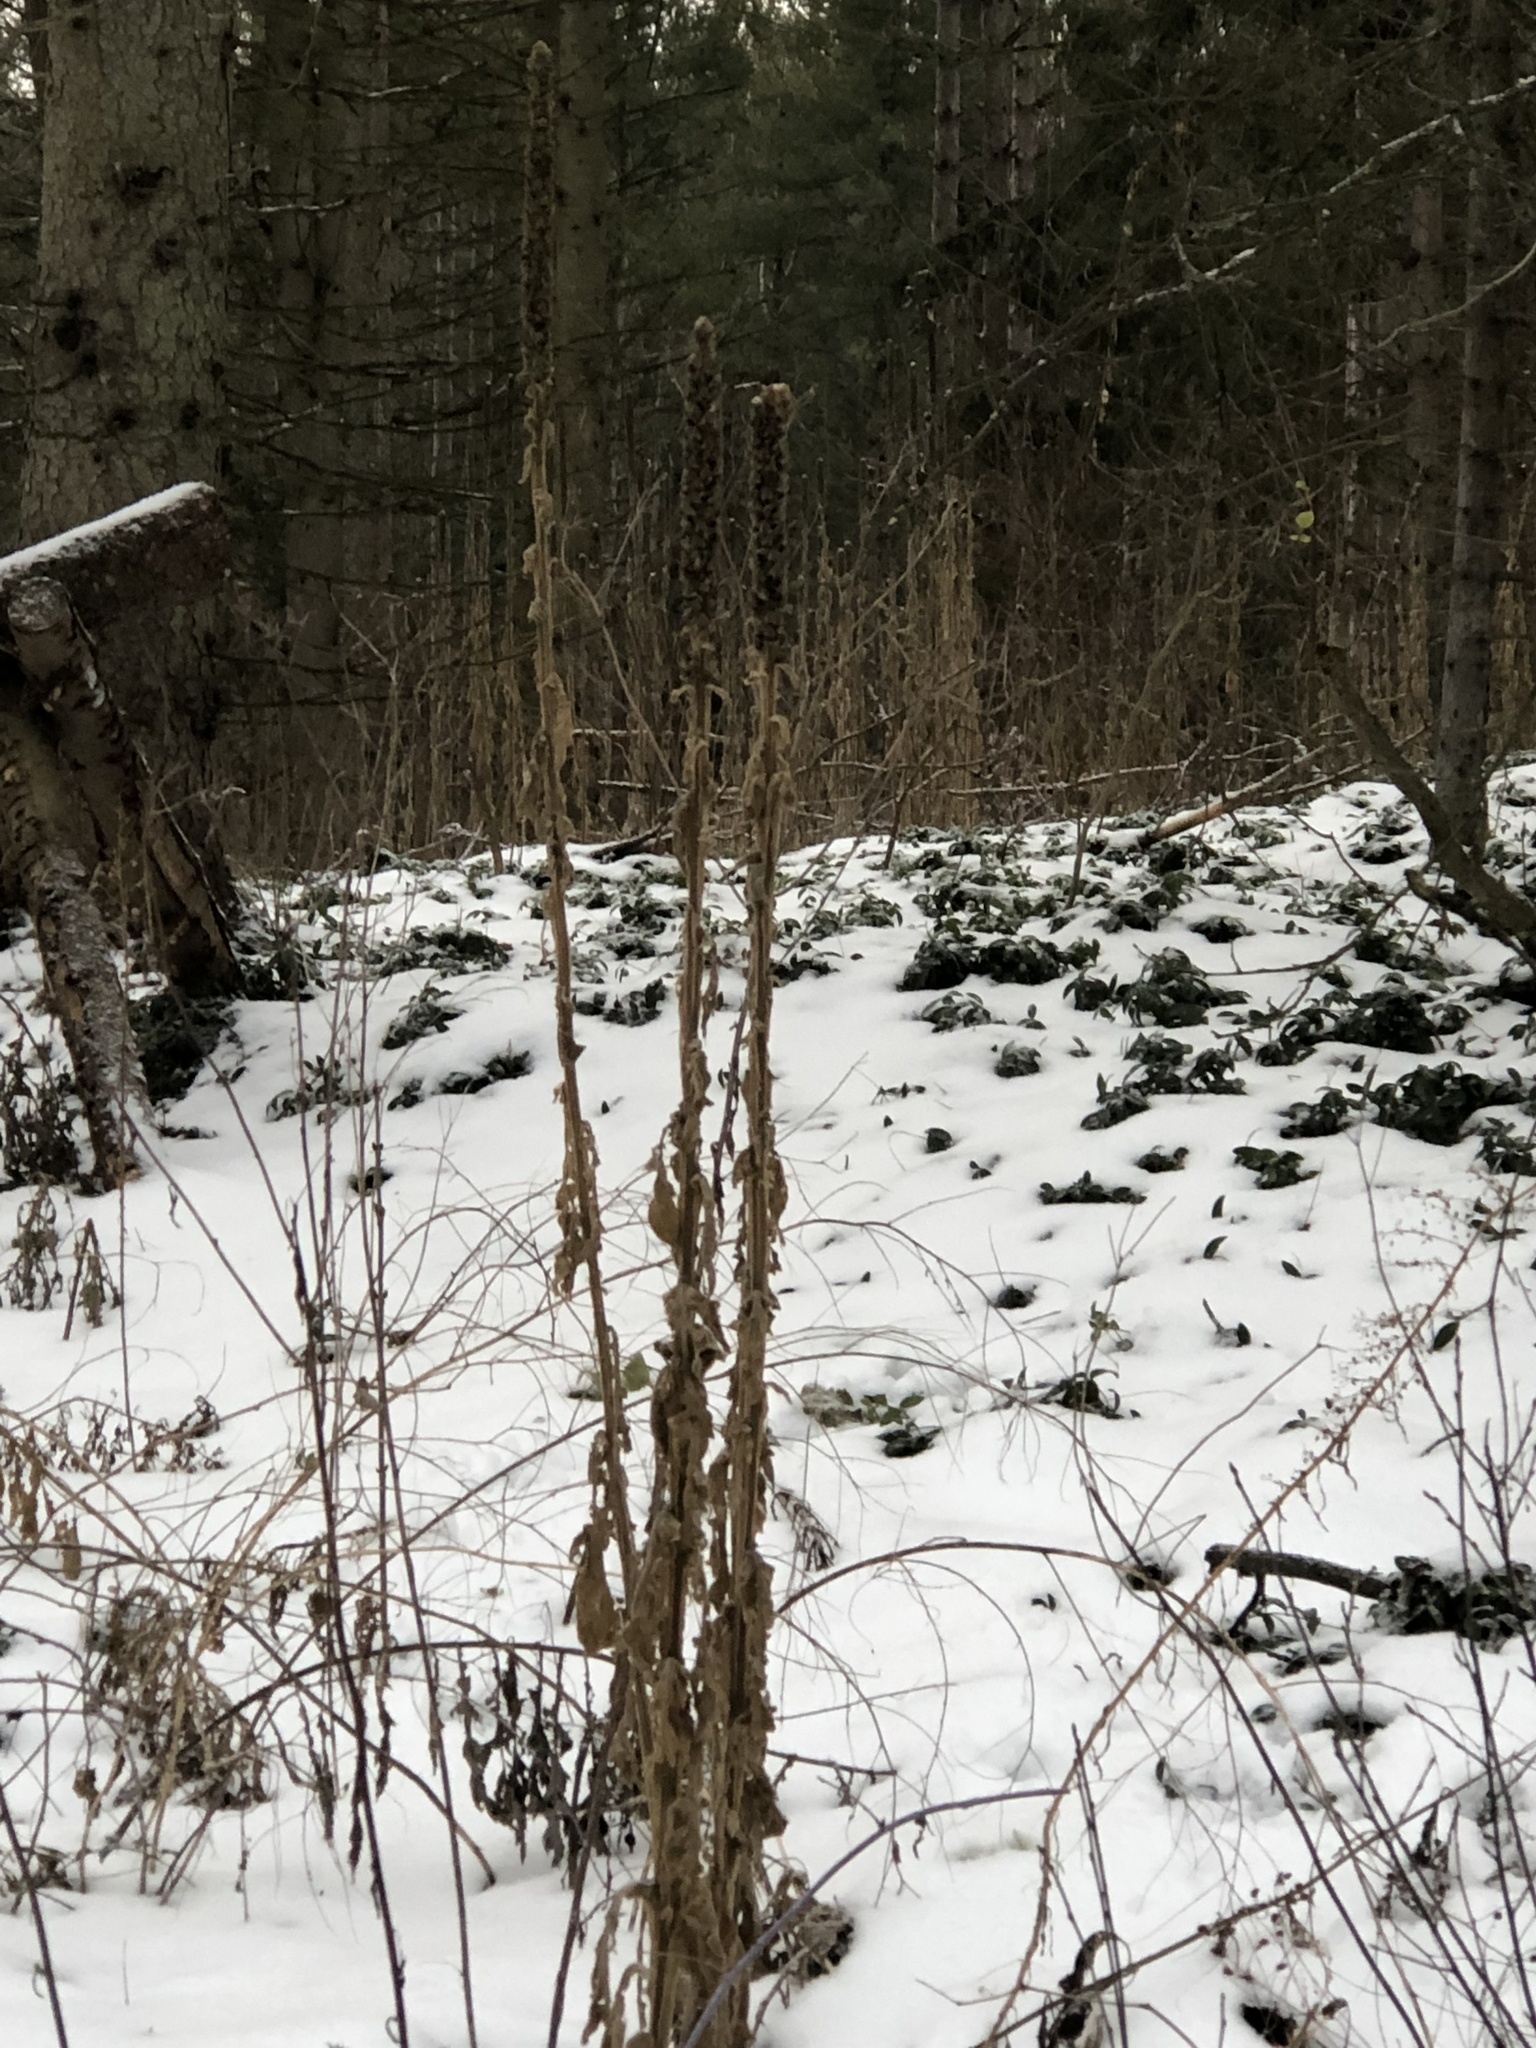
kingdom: Plantae
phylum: Tracheophyta
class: Magnoliopsida
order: Lamiales
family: Scrophulariaceae
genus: Verbascum
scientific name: Verbascum thapsus
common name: Common mullein
